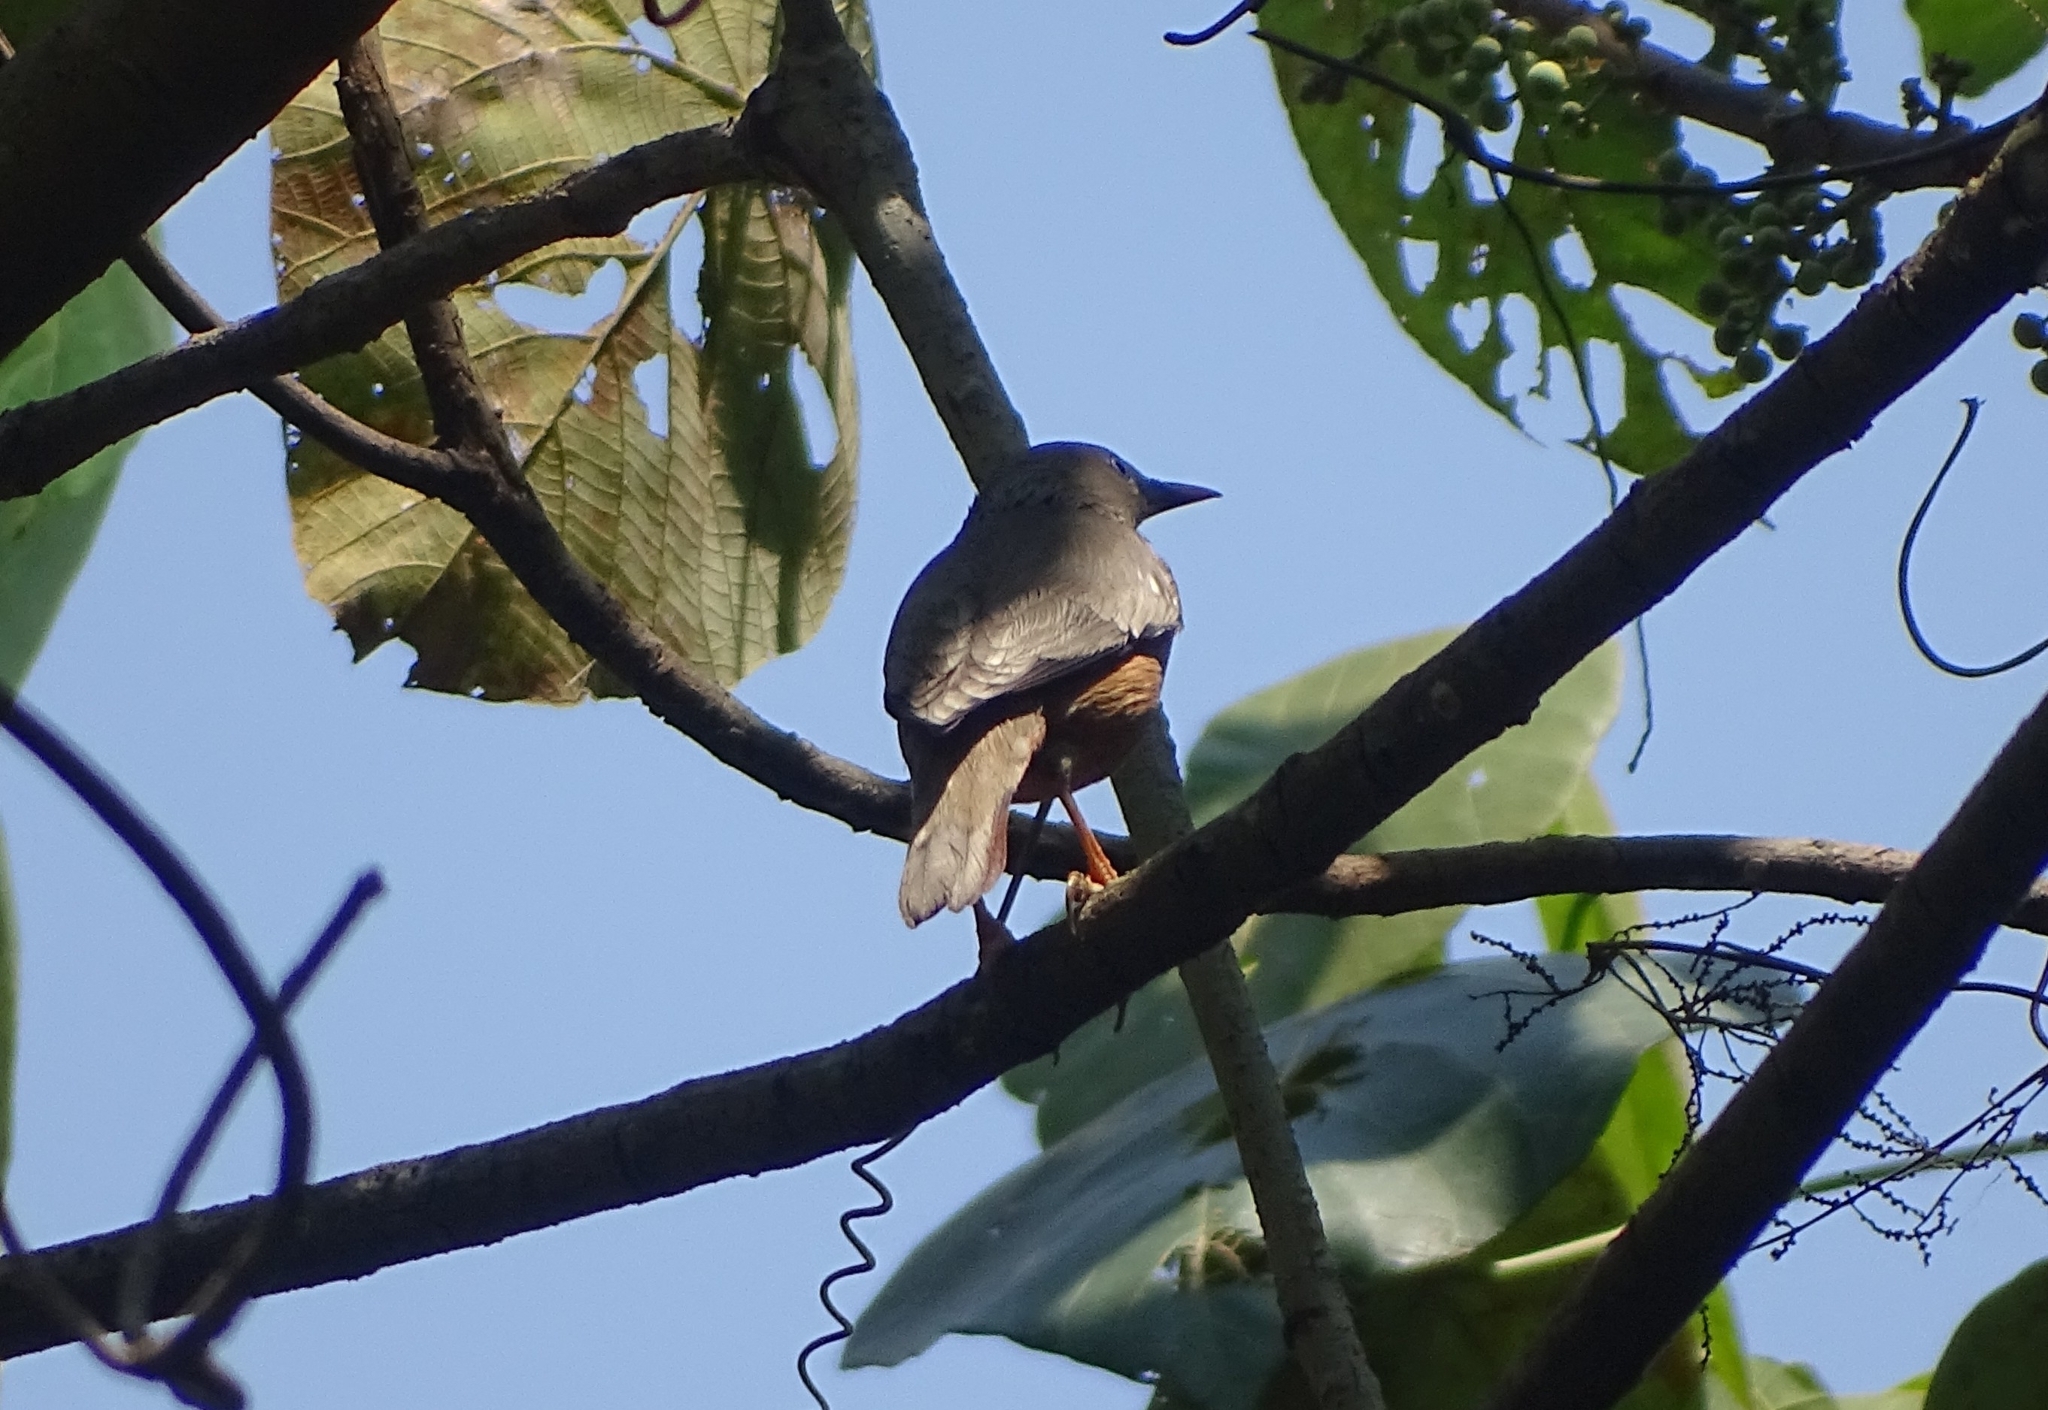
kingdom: Animalia
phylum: Chordata
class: Aves
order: Passeriformes
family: Sturnidae
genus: Sturnia
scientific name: Sturnia malabarica
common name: Chestnut-tailed starling
